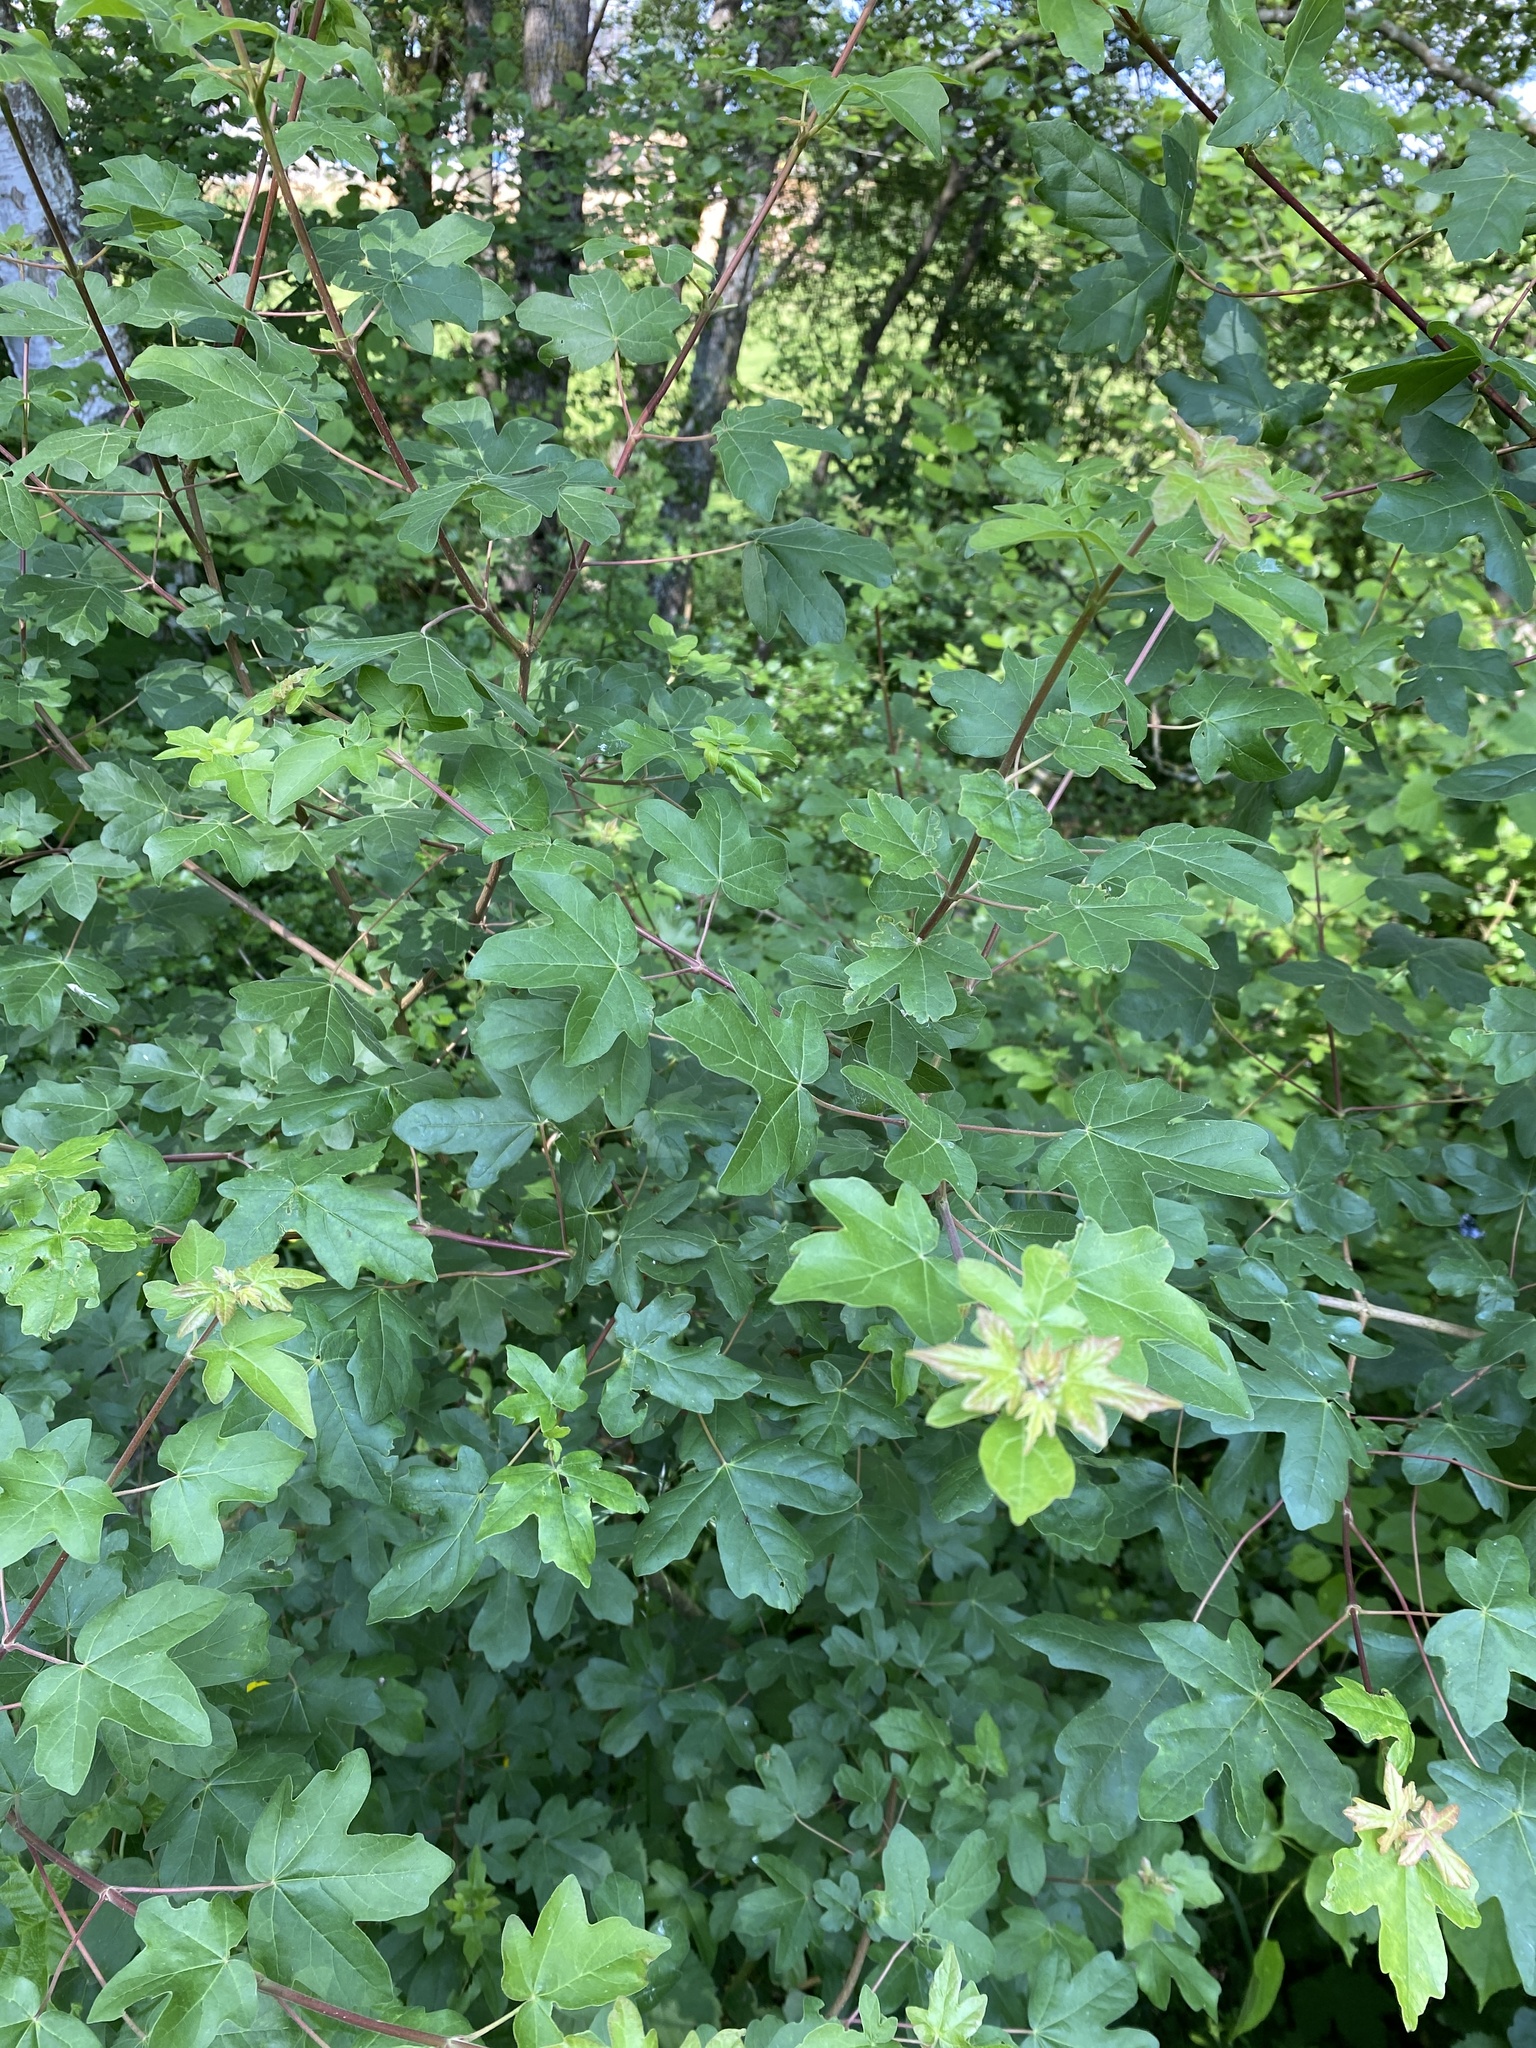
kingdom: Plantae
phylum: Tracheophyta
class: Magnoliopsida
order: Sapindales
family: Sapindaceae
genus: Acer
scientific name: Acer campestre
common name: Field maple
